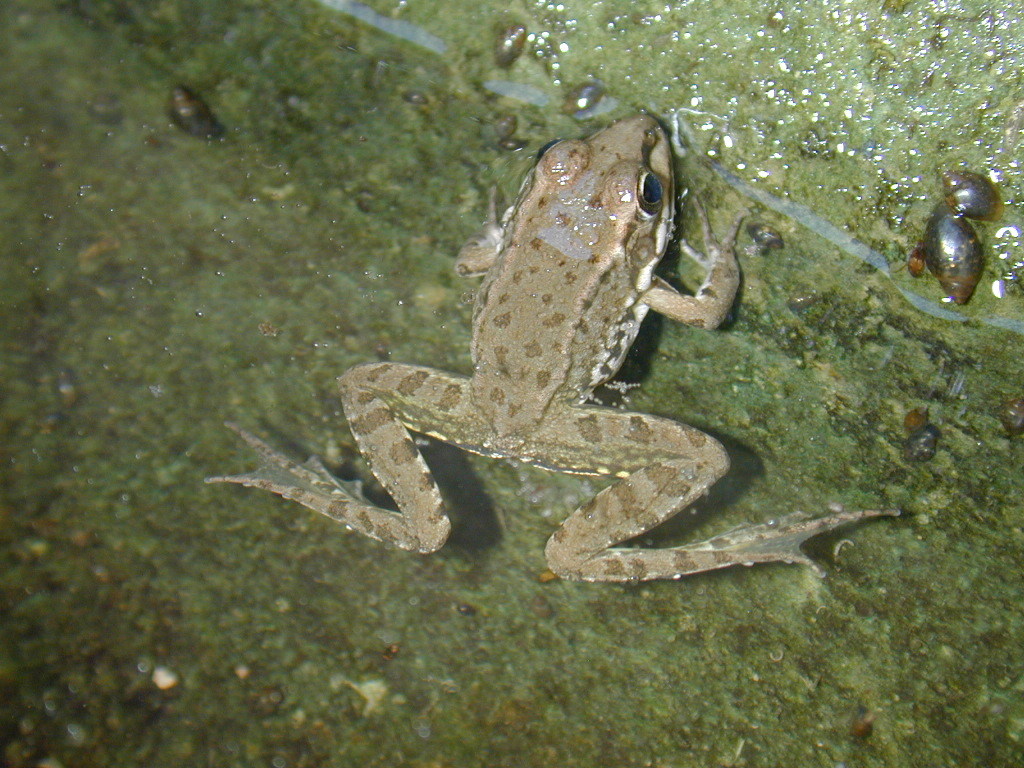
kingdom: Animalia
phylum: Chordata
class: Amphibia
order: Anura
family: Ranidae
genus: Pelophylax
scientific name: Pelophylax perezi
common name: Perez's frog
